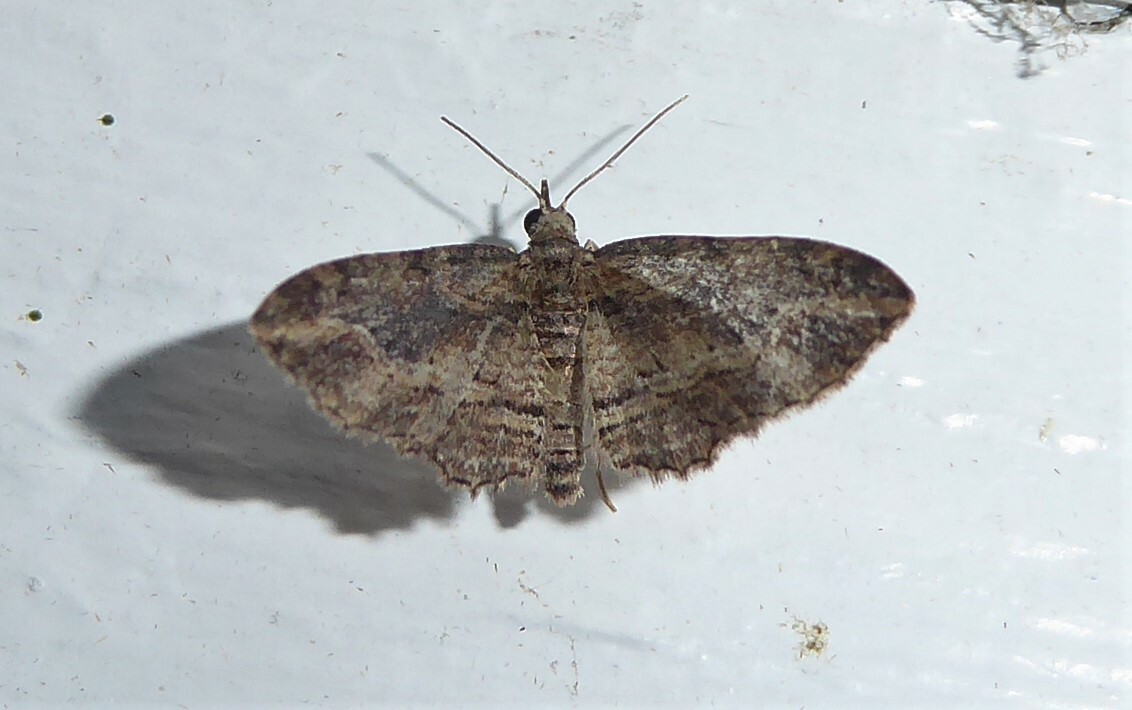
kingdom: Animalia
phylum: Arthropoda
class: Insecta
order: Lepidoptera
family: Geometridae
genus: Chloroclystis
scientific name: Chloroclystis filata
